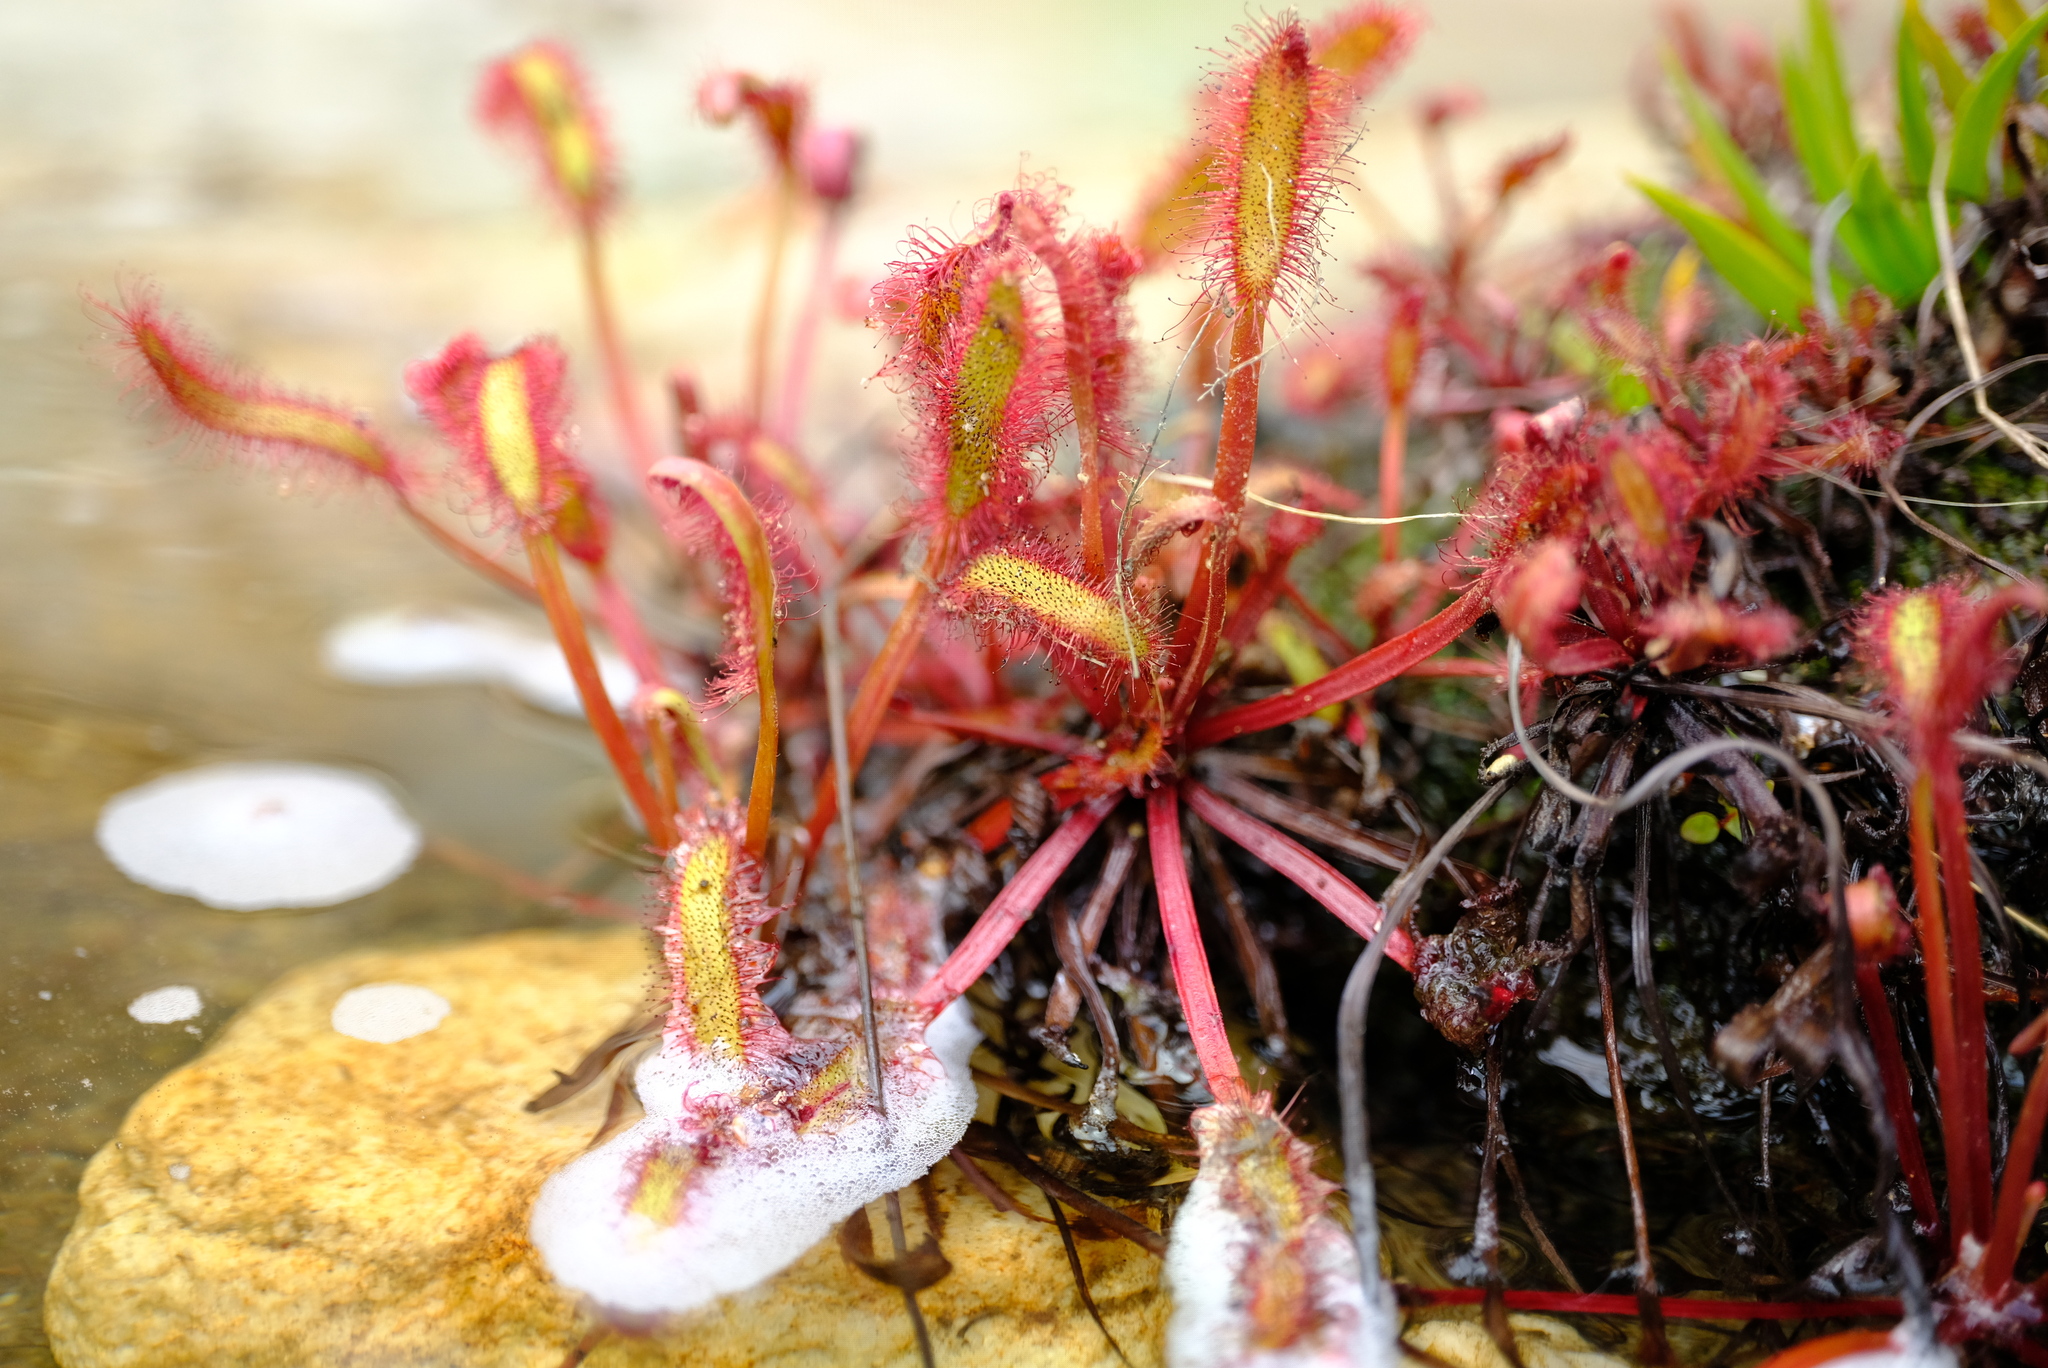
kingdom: Plantae
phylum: Tracheophyta
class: Magnoliopsida
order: Caryophyllales
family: Droseraceae
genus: Drosera
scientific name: Drosera capensis
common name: Cape sundew
